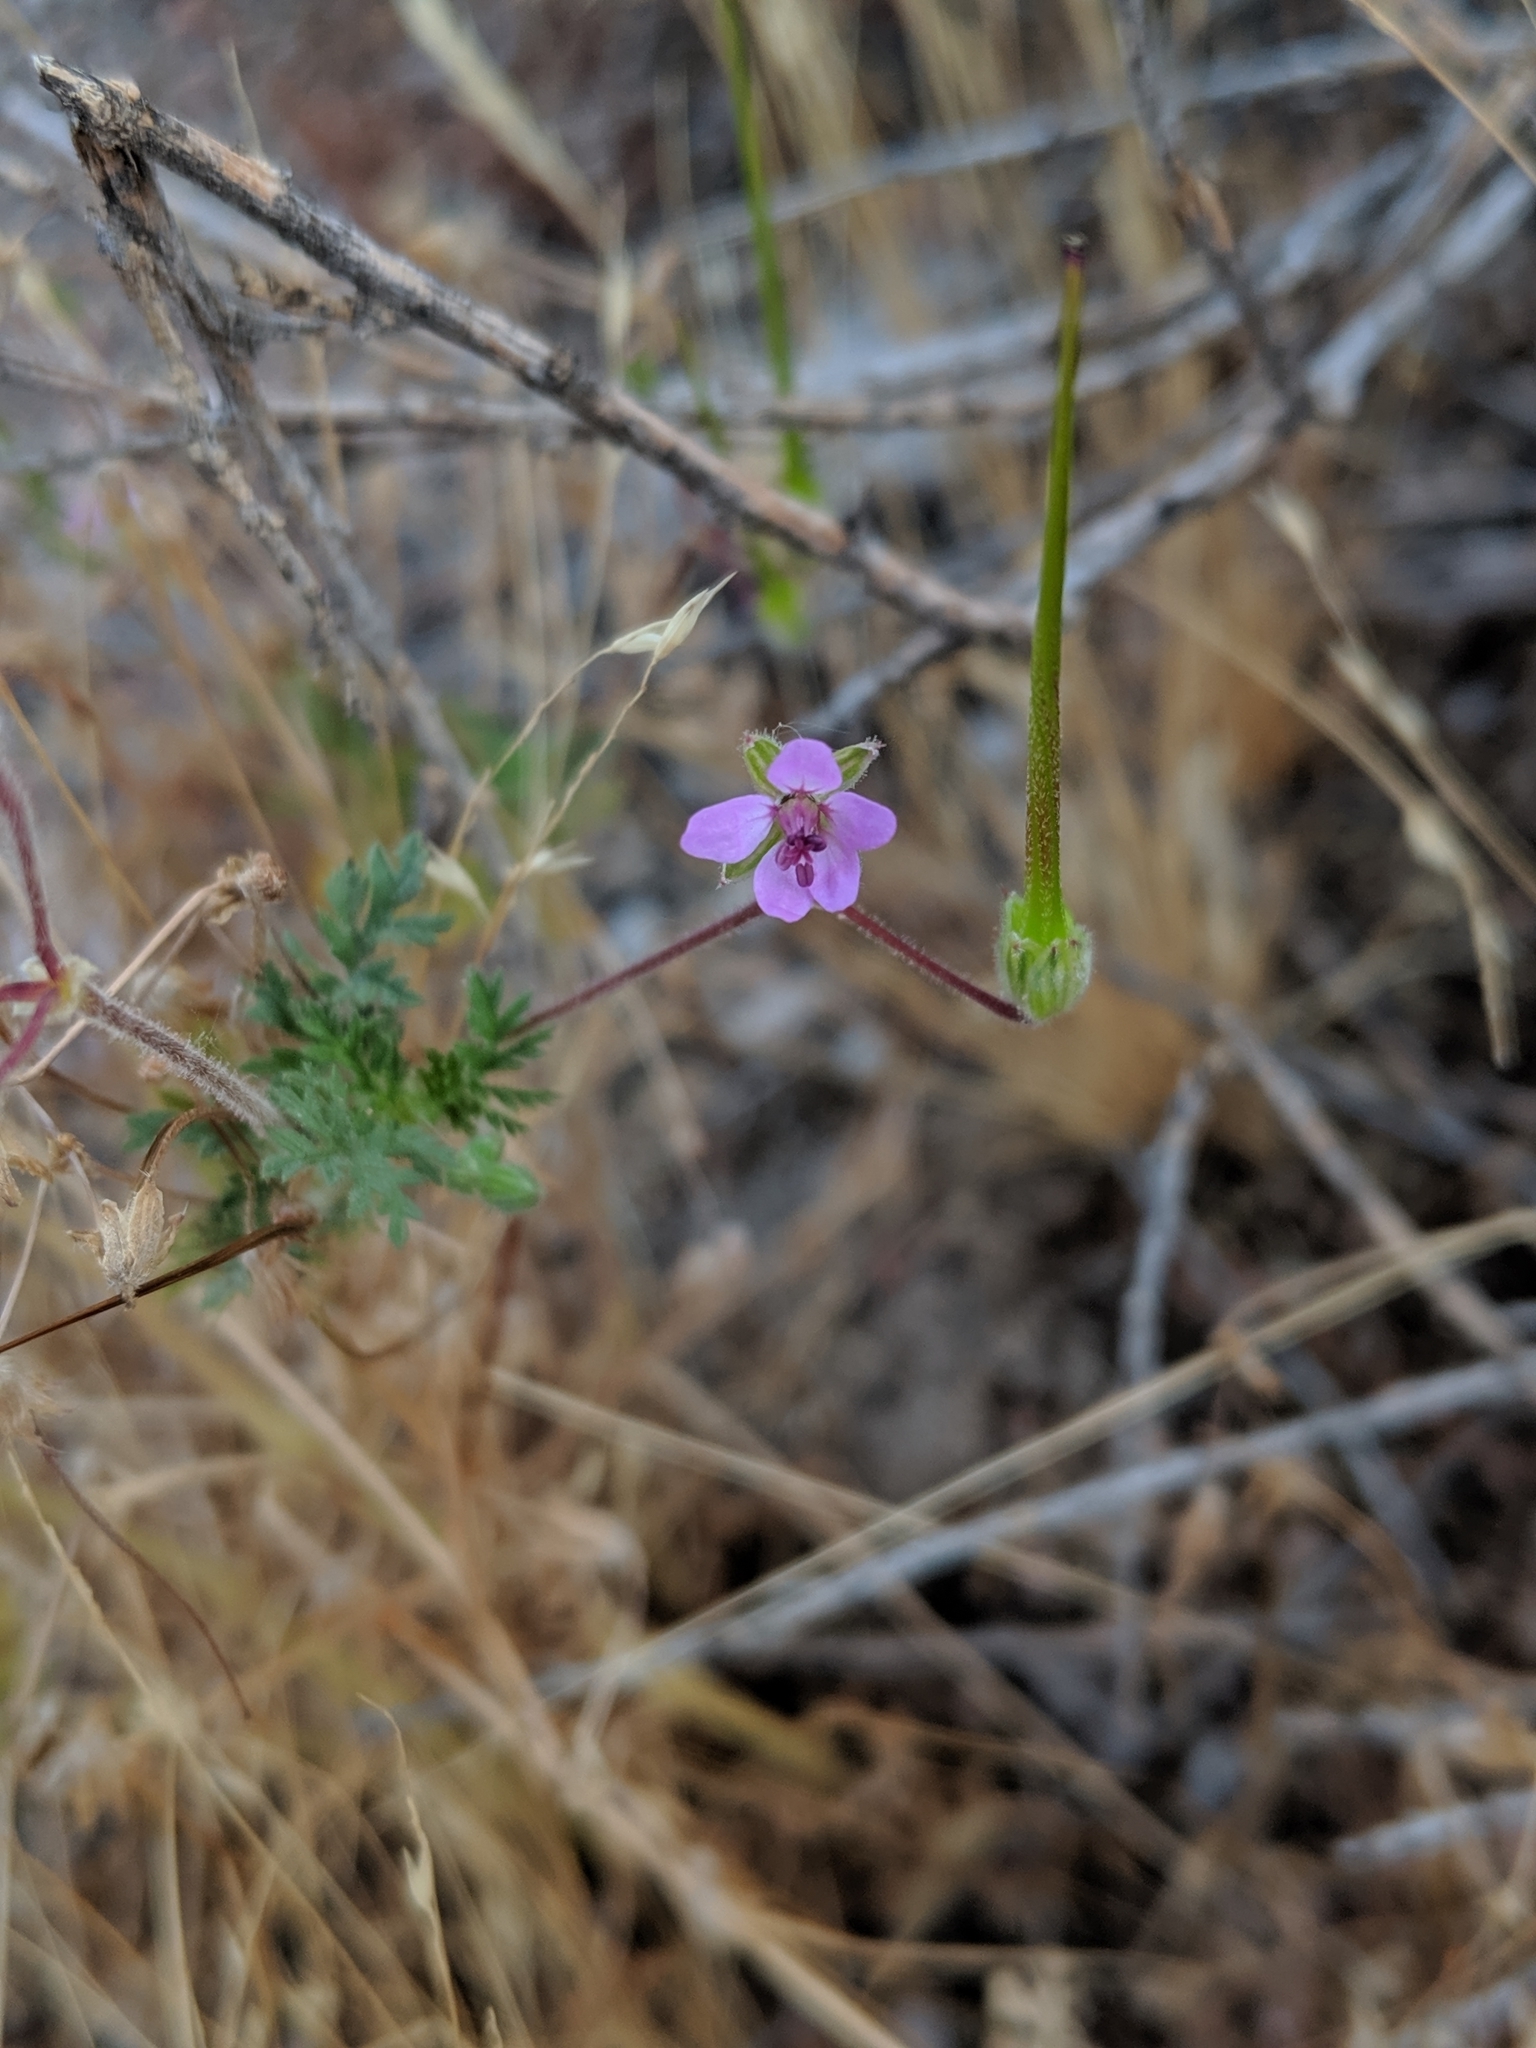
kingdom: Plantae
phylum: Tracheophyta
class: Magnoliopsida
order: Geraniales
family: Geraniaceae
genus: Erodium
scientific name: Erodium cicutarium
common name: Common stork's-bill
